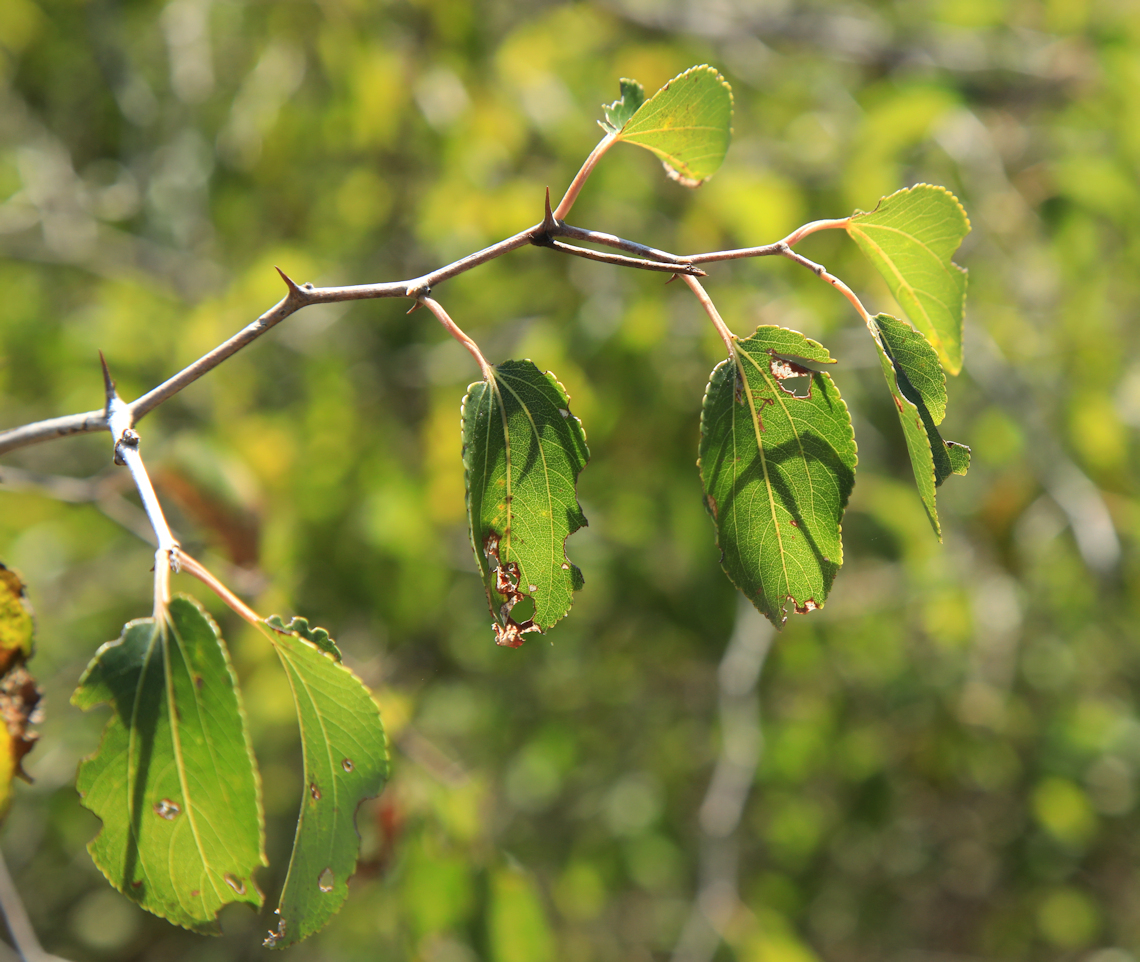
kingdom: Plantae
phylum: Tracheophyta
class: Magnoliopsida
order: Rosales
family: Rhamnaceae
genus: Ziziphus
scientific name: Ziziphus mucronata
